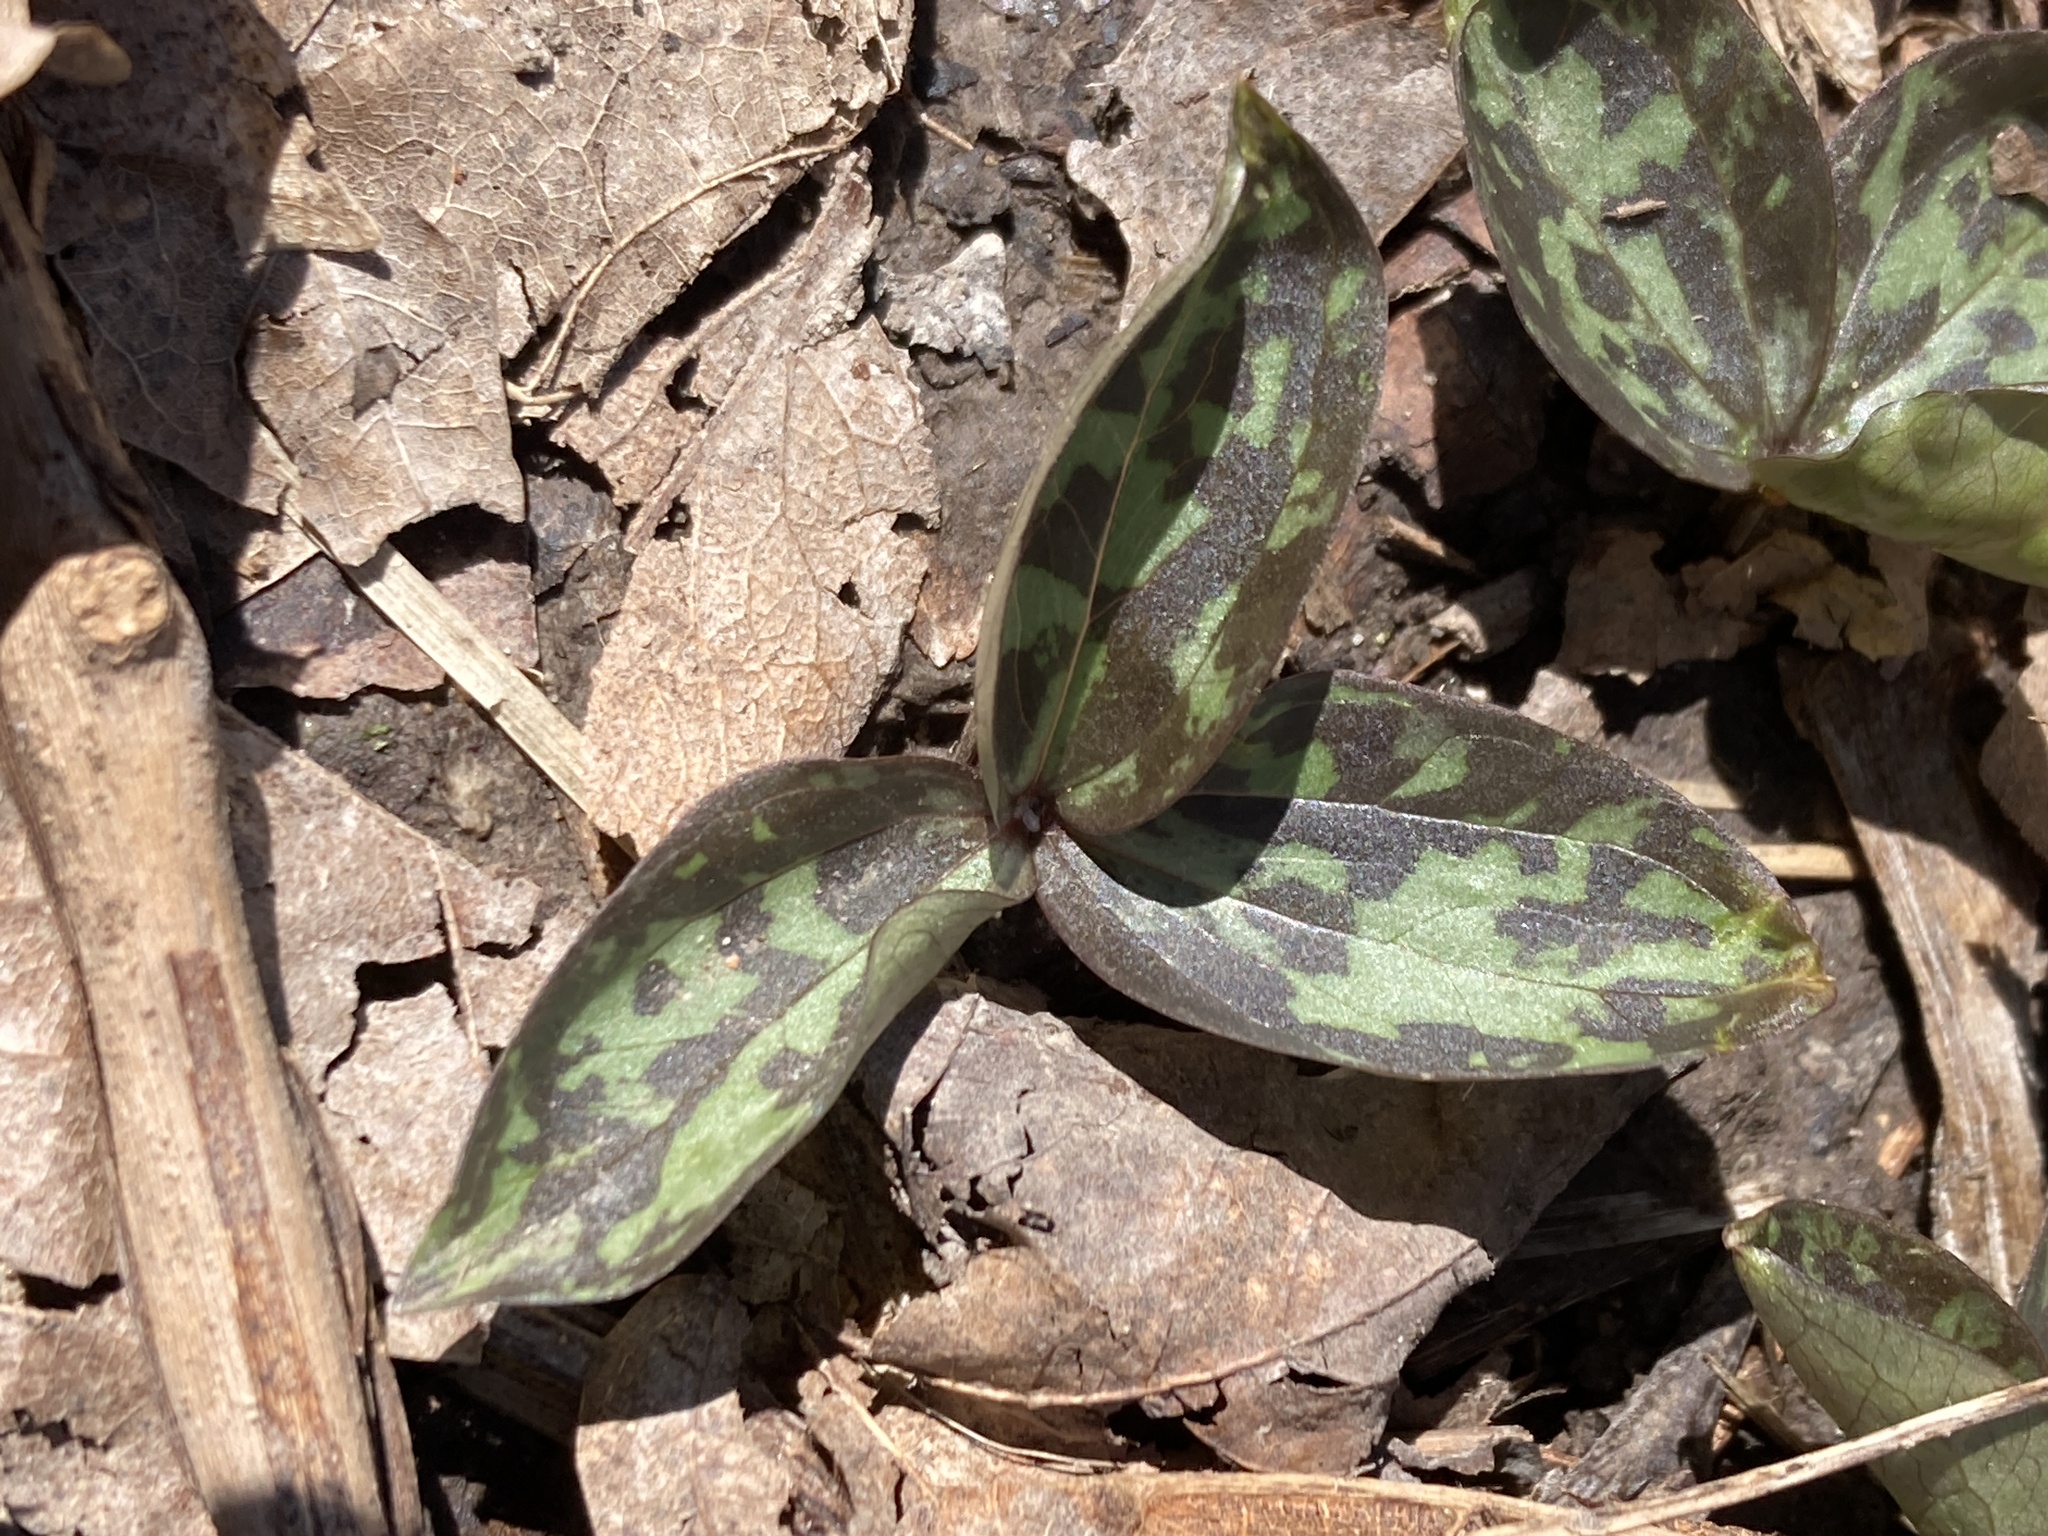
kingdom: Plantae
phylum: Tracheophyta
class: Liliopsida
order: Liliales
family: Melanthiaceae
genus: Trillium
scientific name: Trillium recurvatum
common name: Bloody butcher
